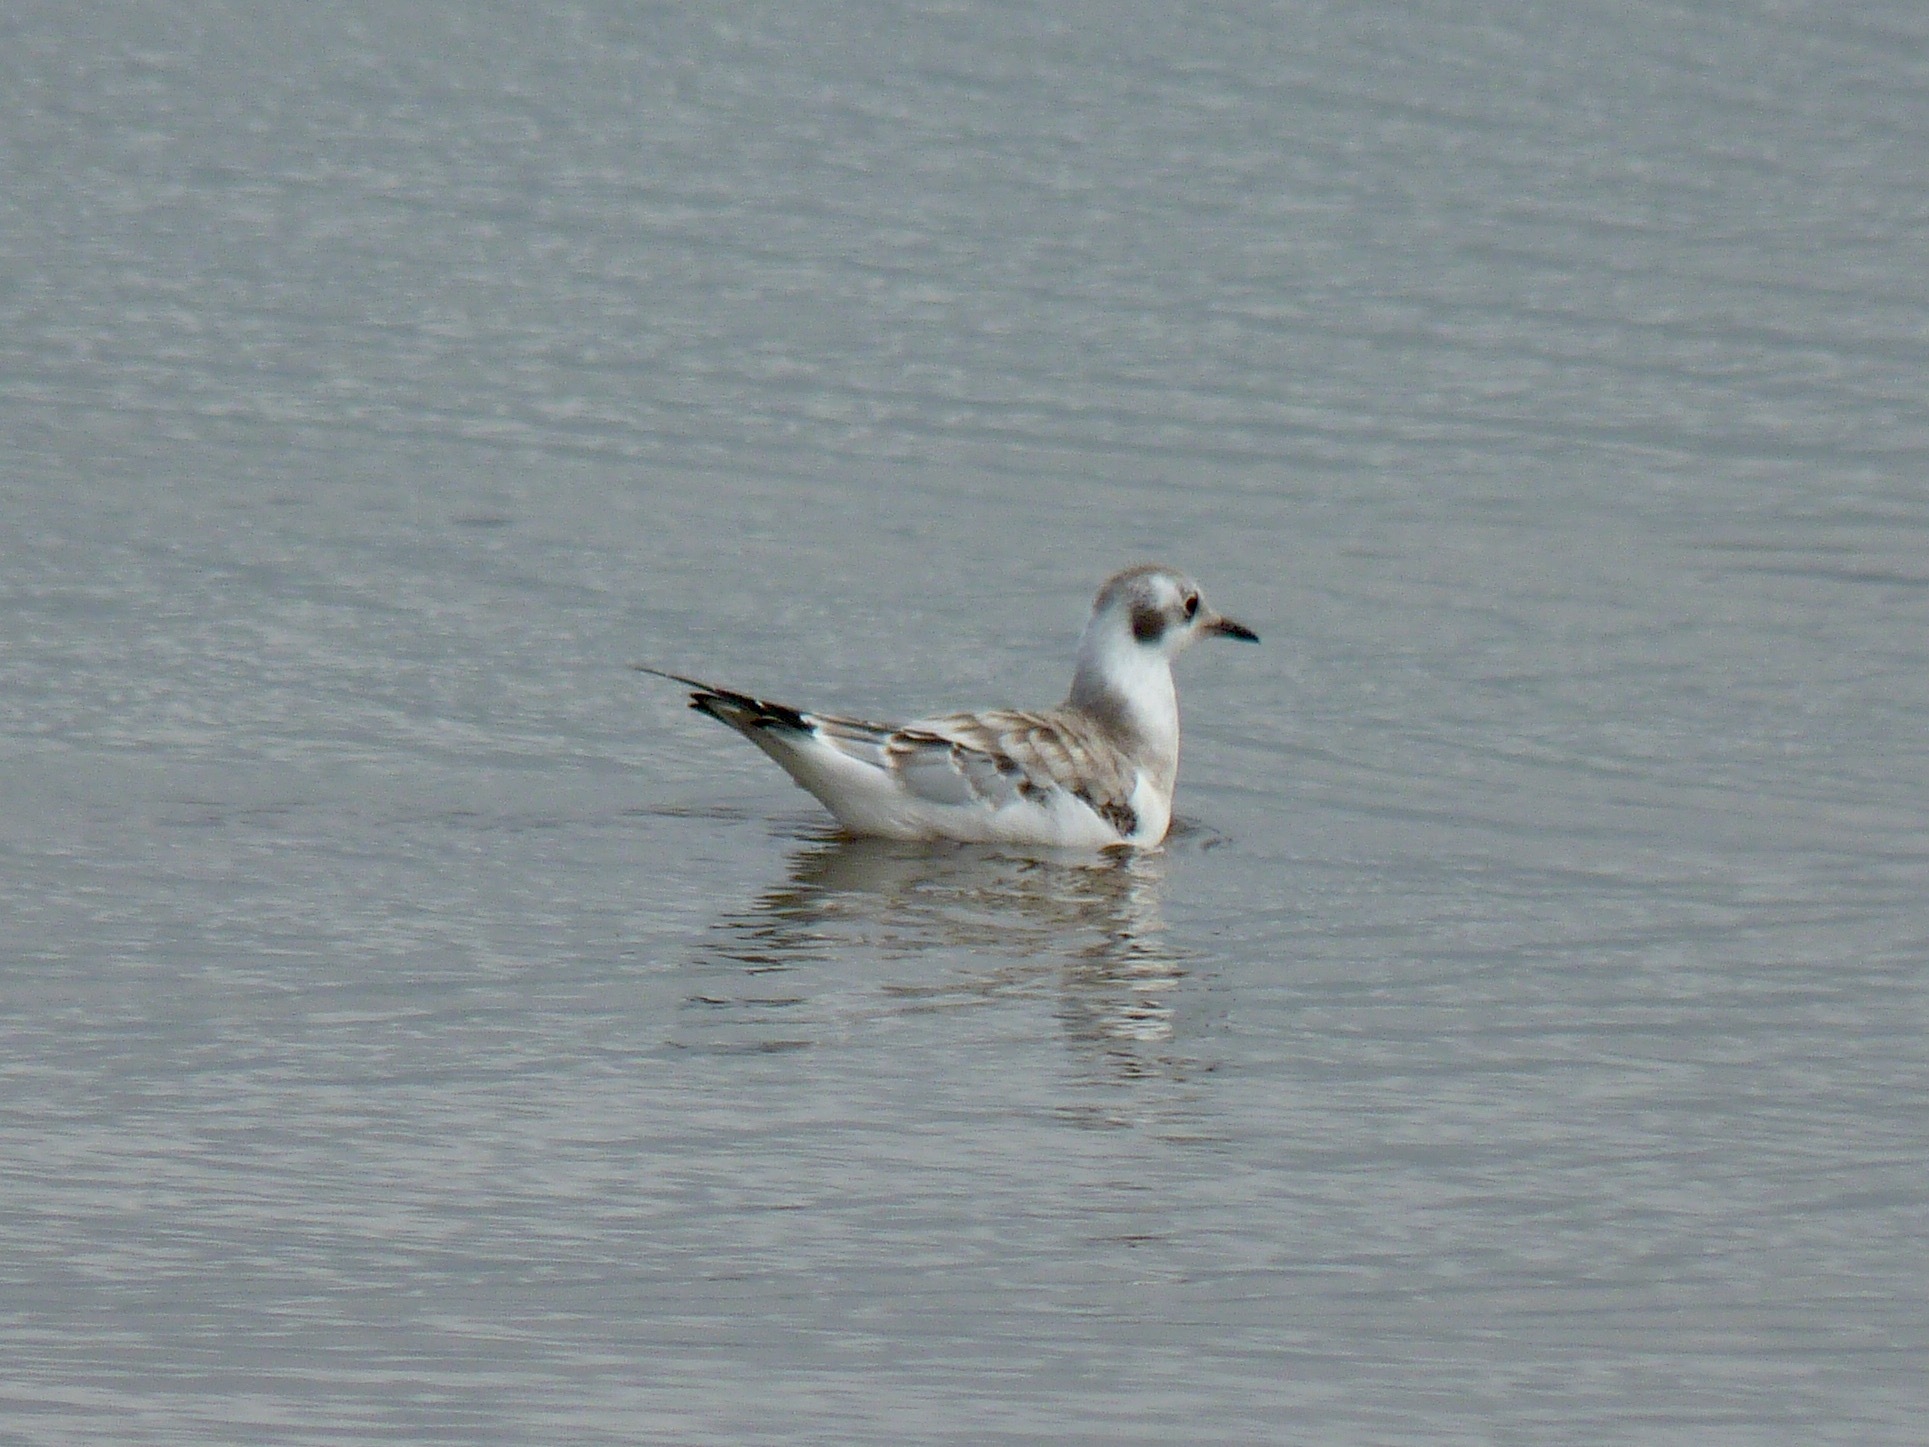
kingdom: Animalia
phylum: Chordata
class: Aves
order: Charadriiformes
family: Laridae
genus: Chroicocephalus
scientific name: Chroicocephalus philadelphia
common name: Bonaparte's gull
